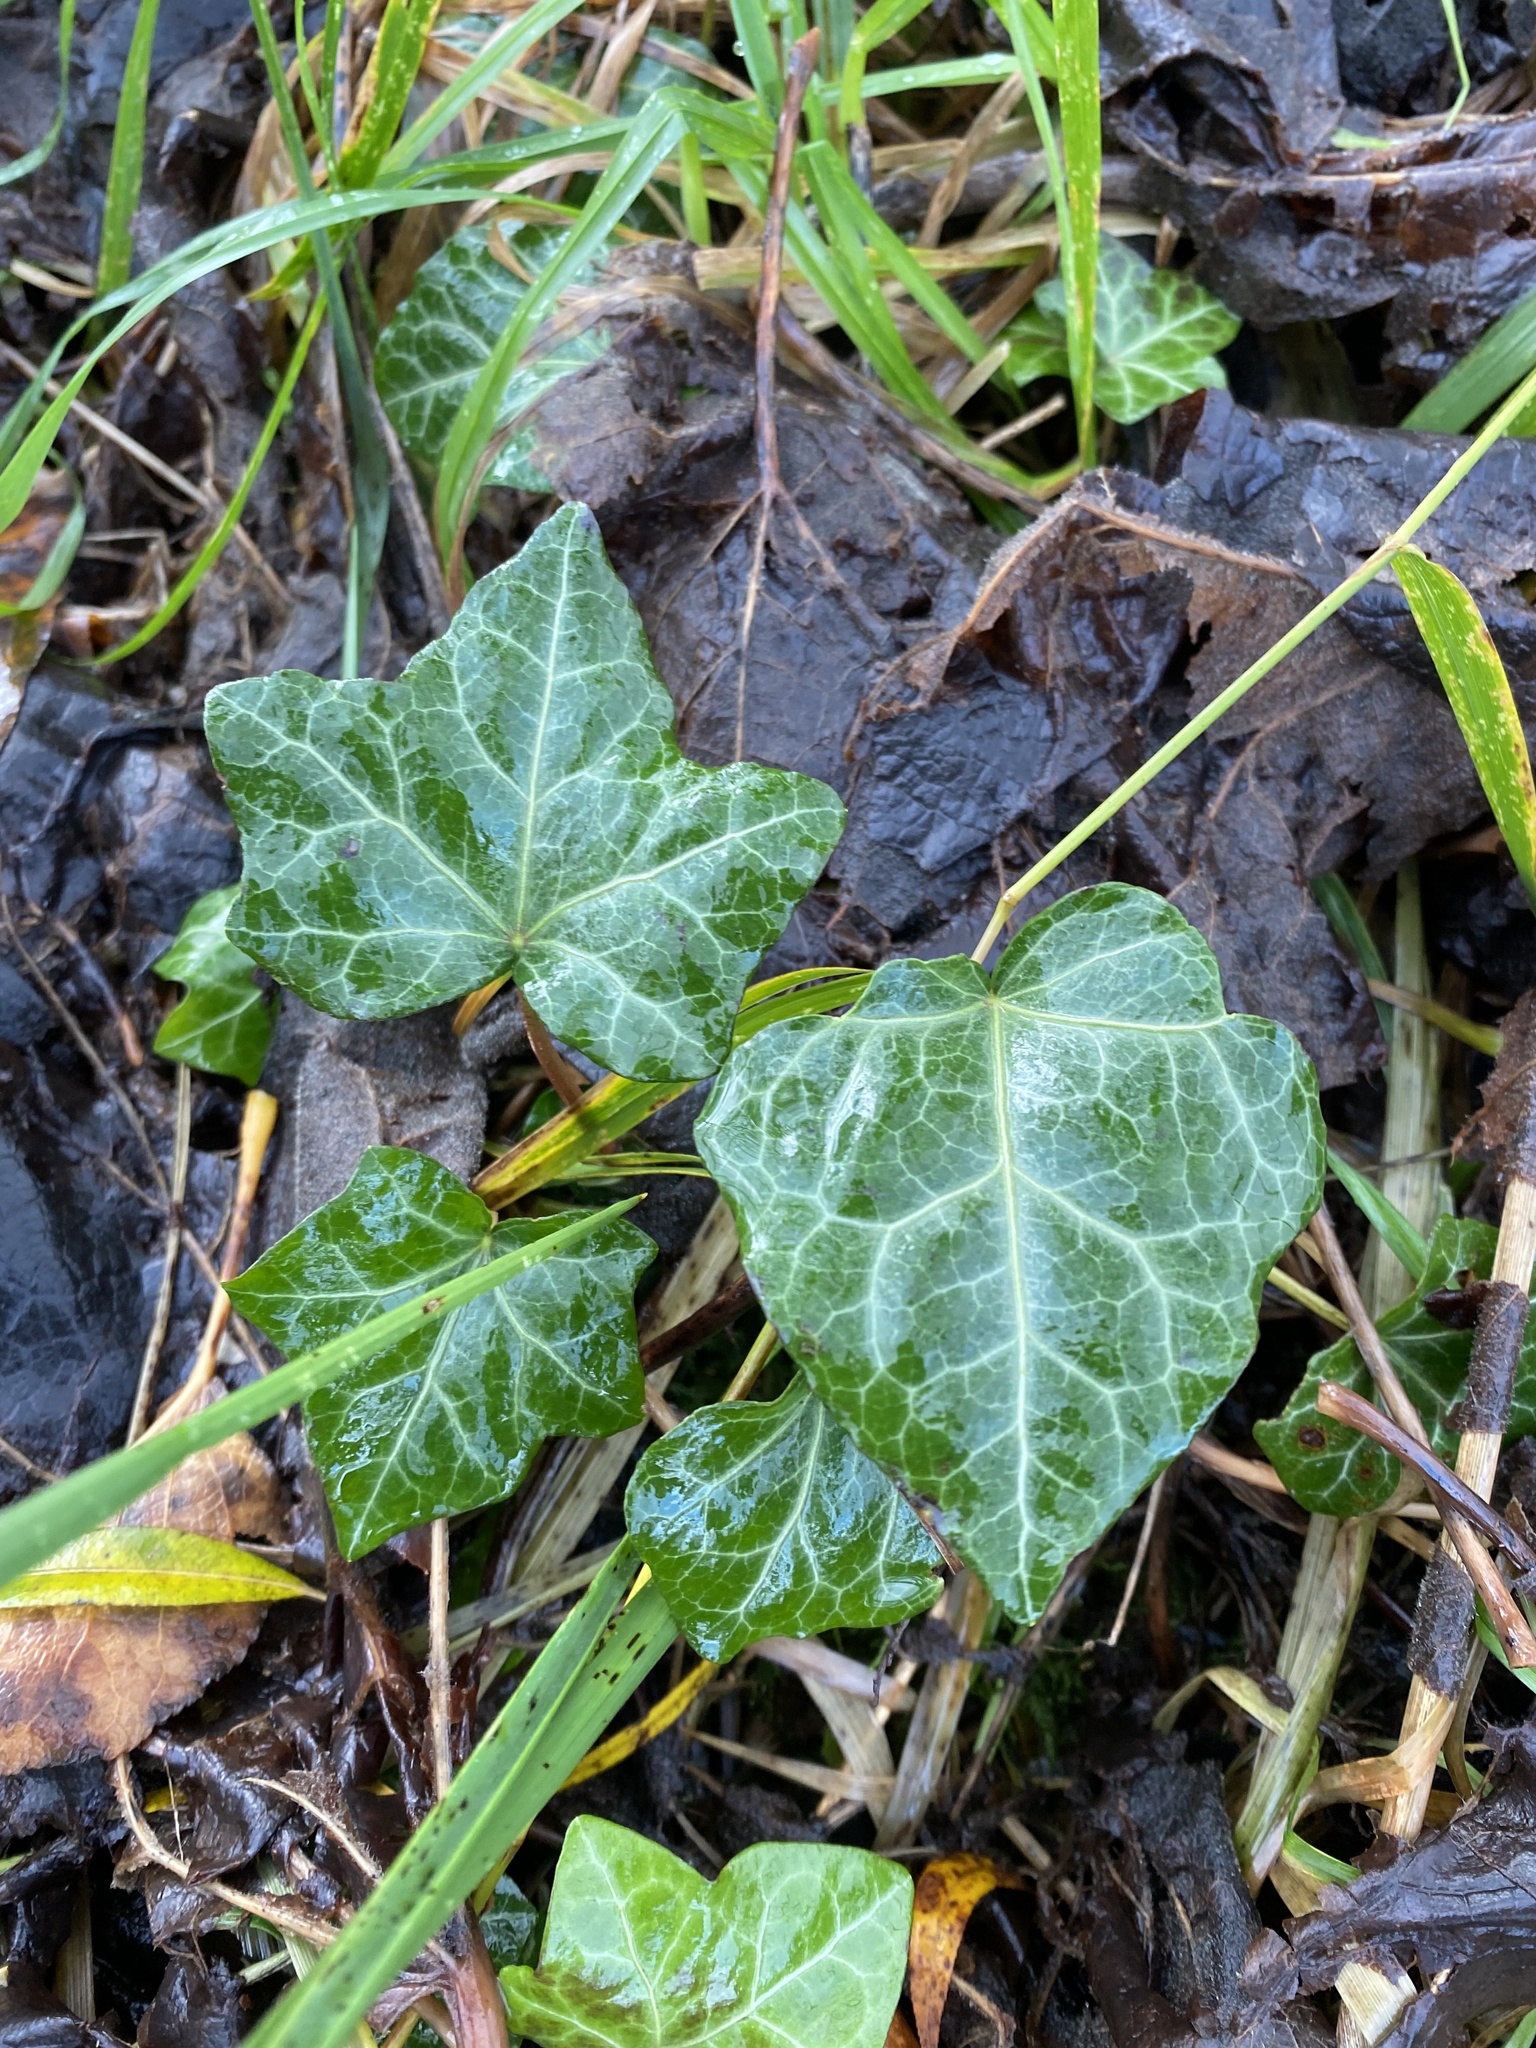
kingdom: Plantae
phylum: Tracheophyta
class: Magnoliopsida
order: Apiales
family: Araliaceae
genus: Hedera
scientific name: Hedera helix
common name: Ivy
